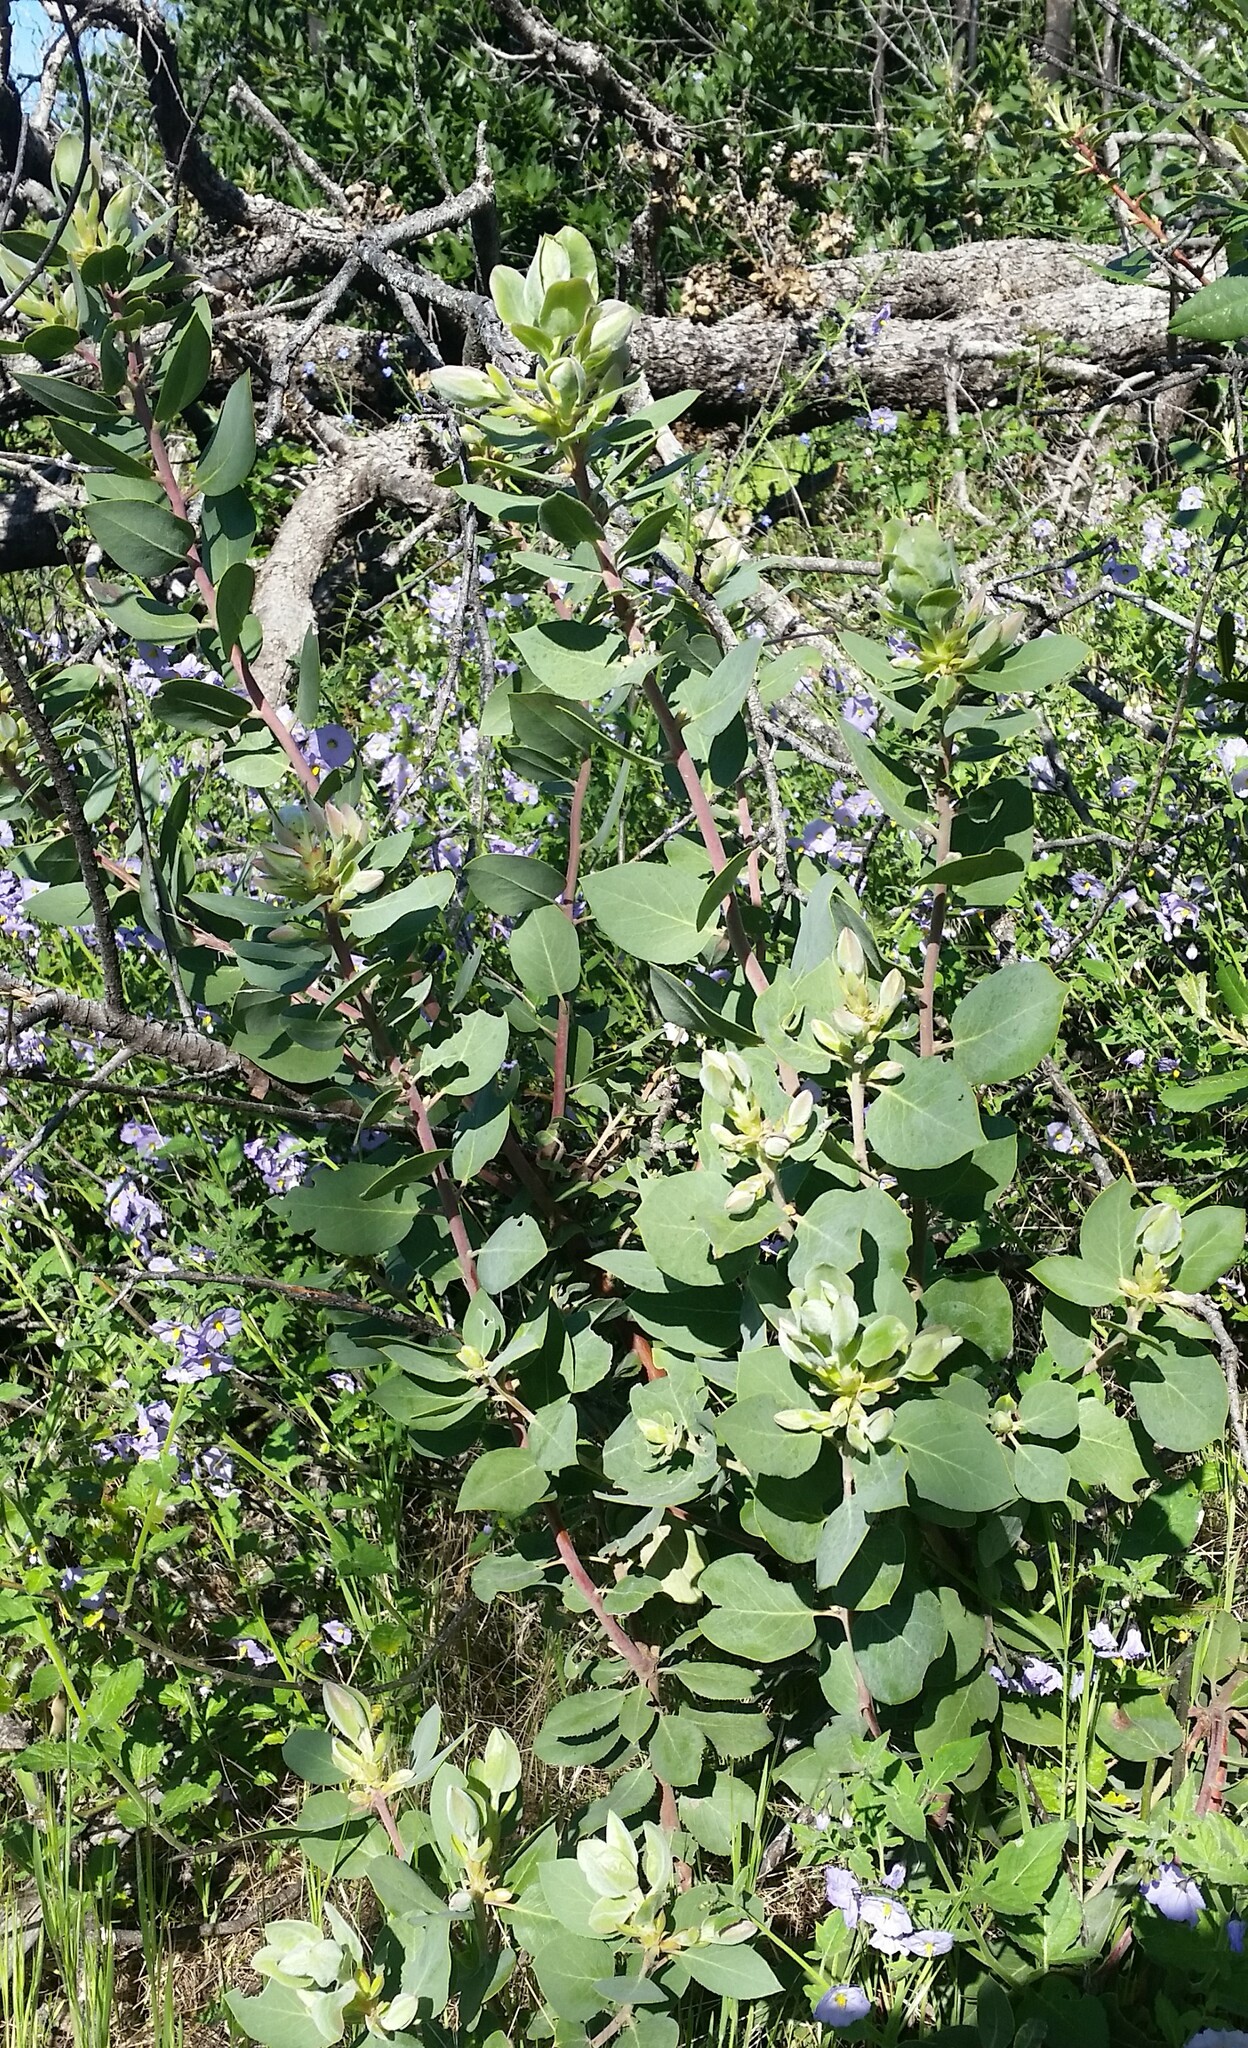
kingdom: Plantae
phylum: Tracheophyta
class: Magnoliopsida
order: Ericales
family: Ericaceae
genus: Arctostaphylos
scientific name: Arctostaphylos glandulosa
